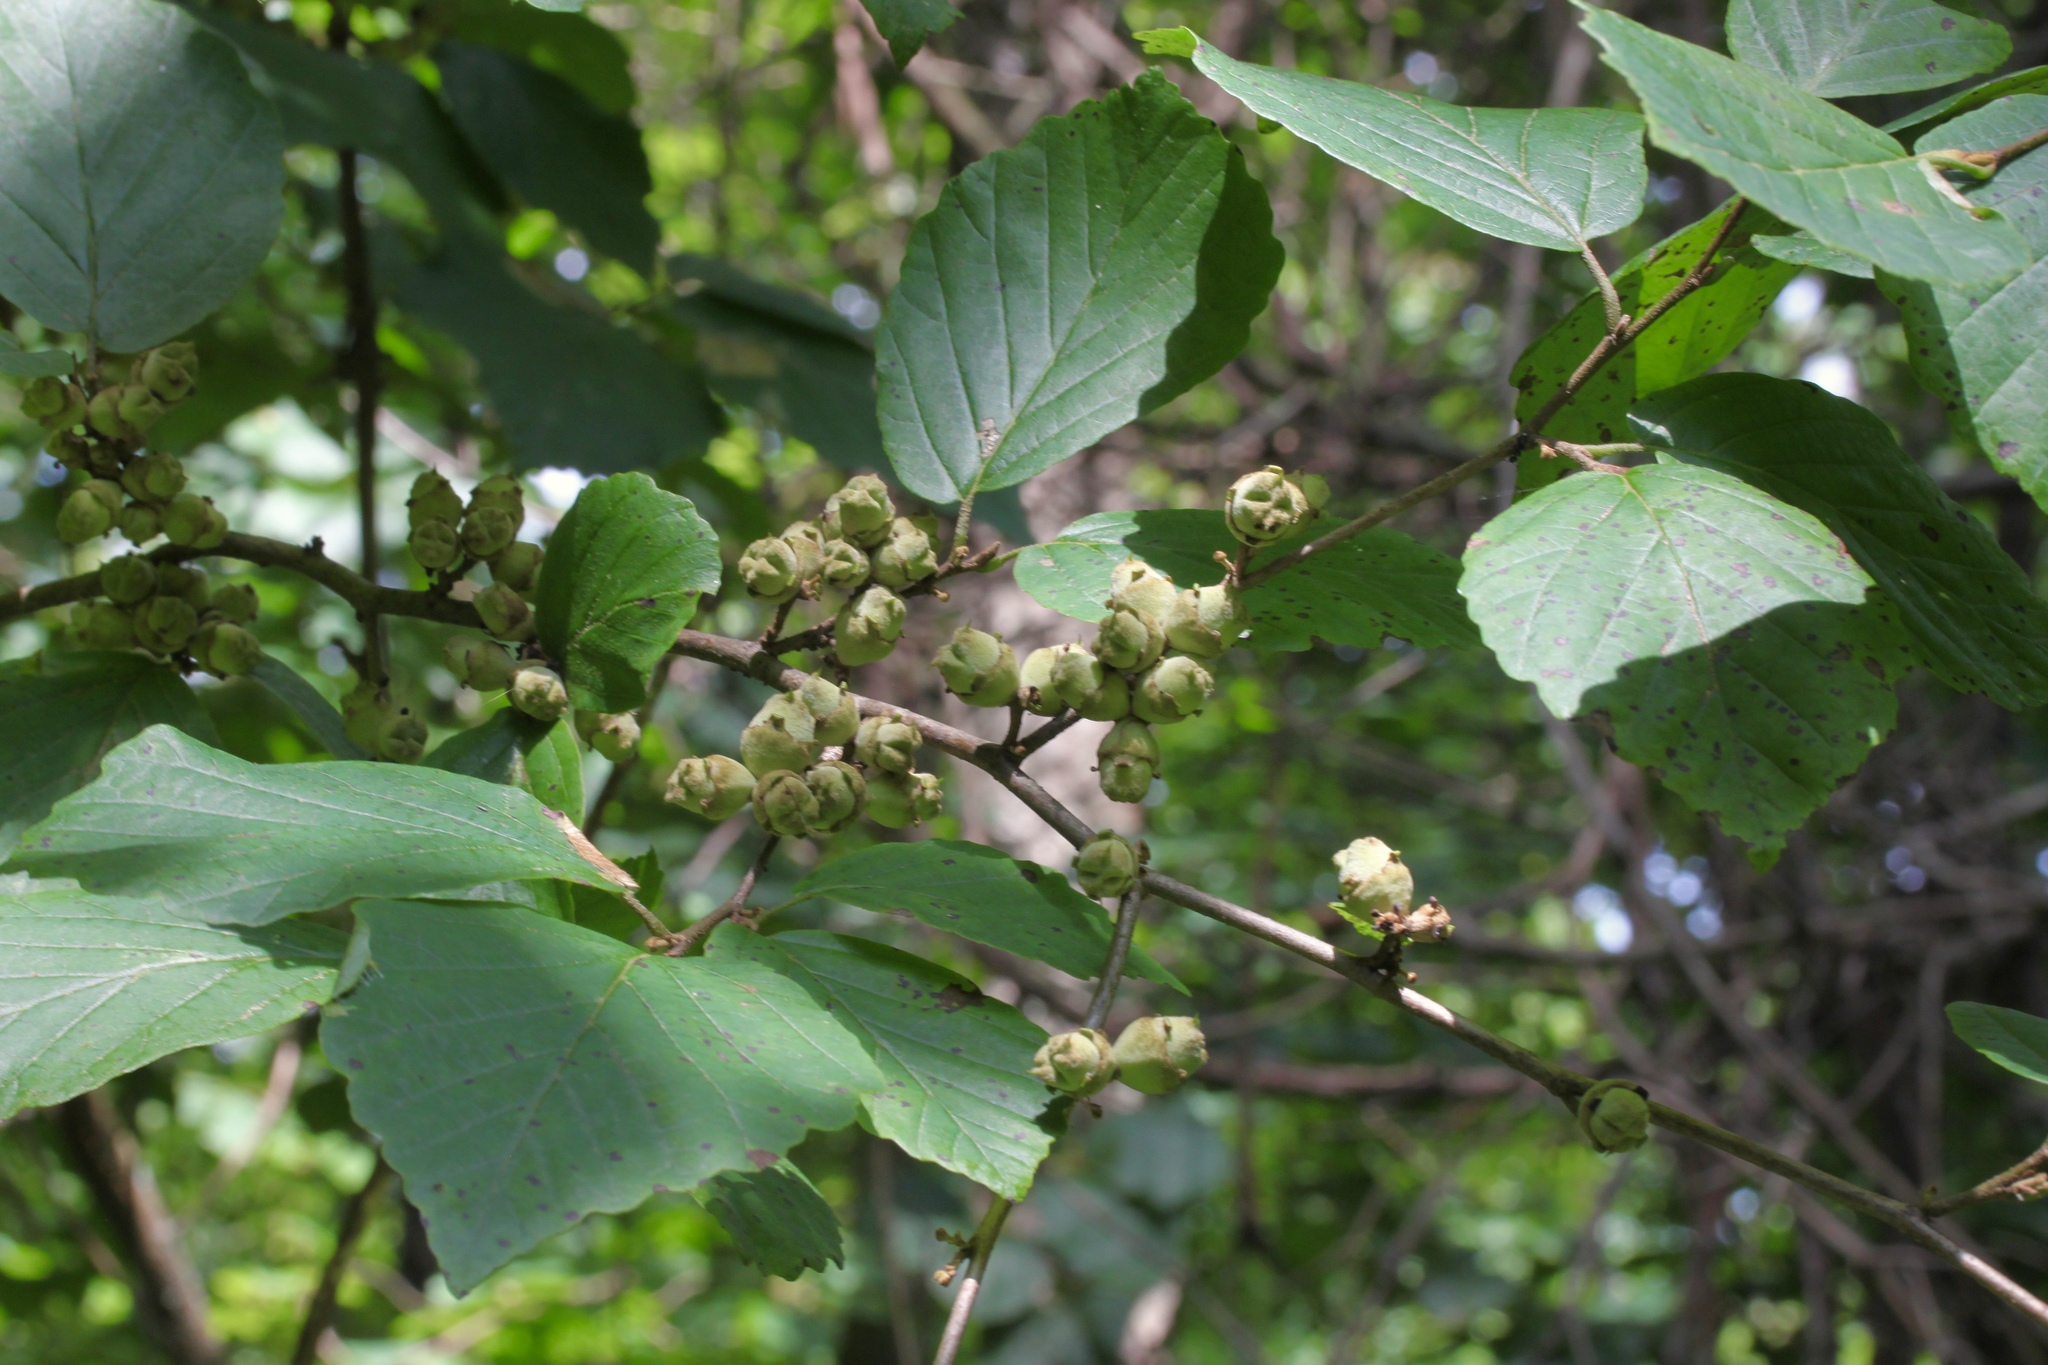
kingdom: Plantae
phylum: Tracheophyta
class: Magnoliopsida
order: Saxifragales
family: Hamamelidaceae
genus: Hamamelis
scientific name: Hamamelis virginiana
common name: Witch-hazel
